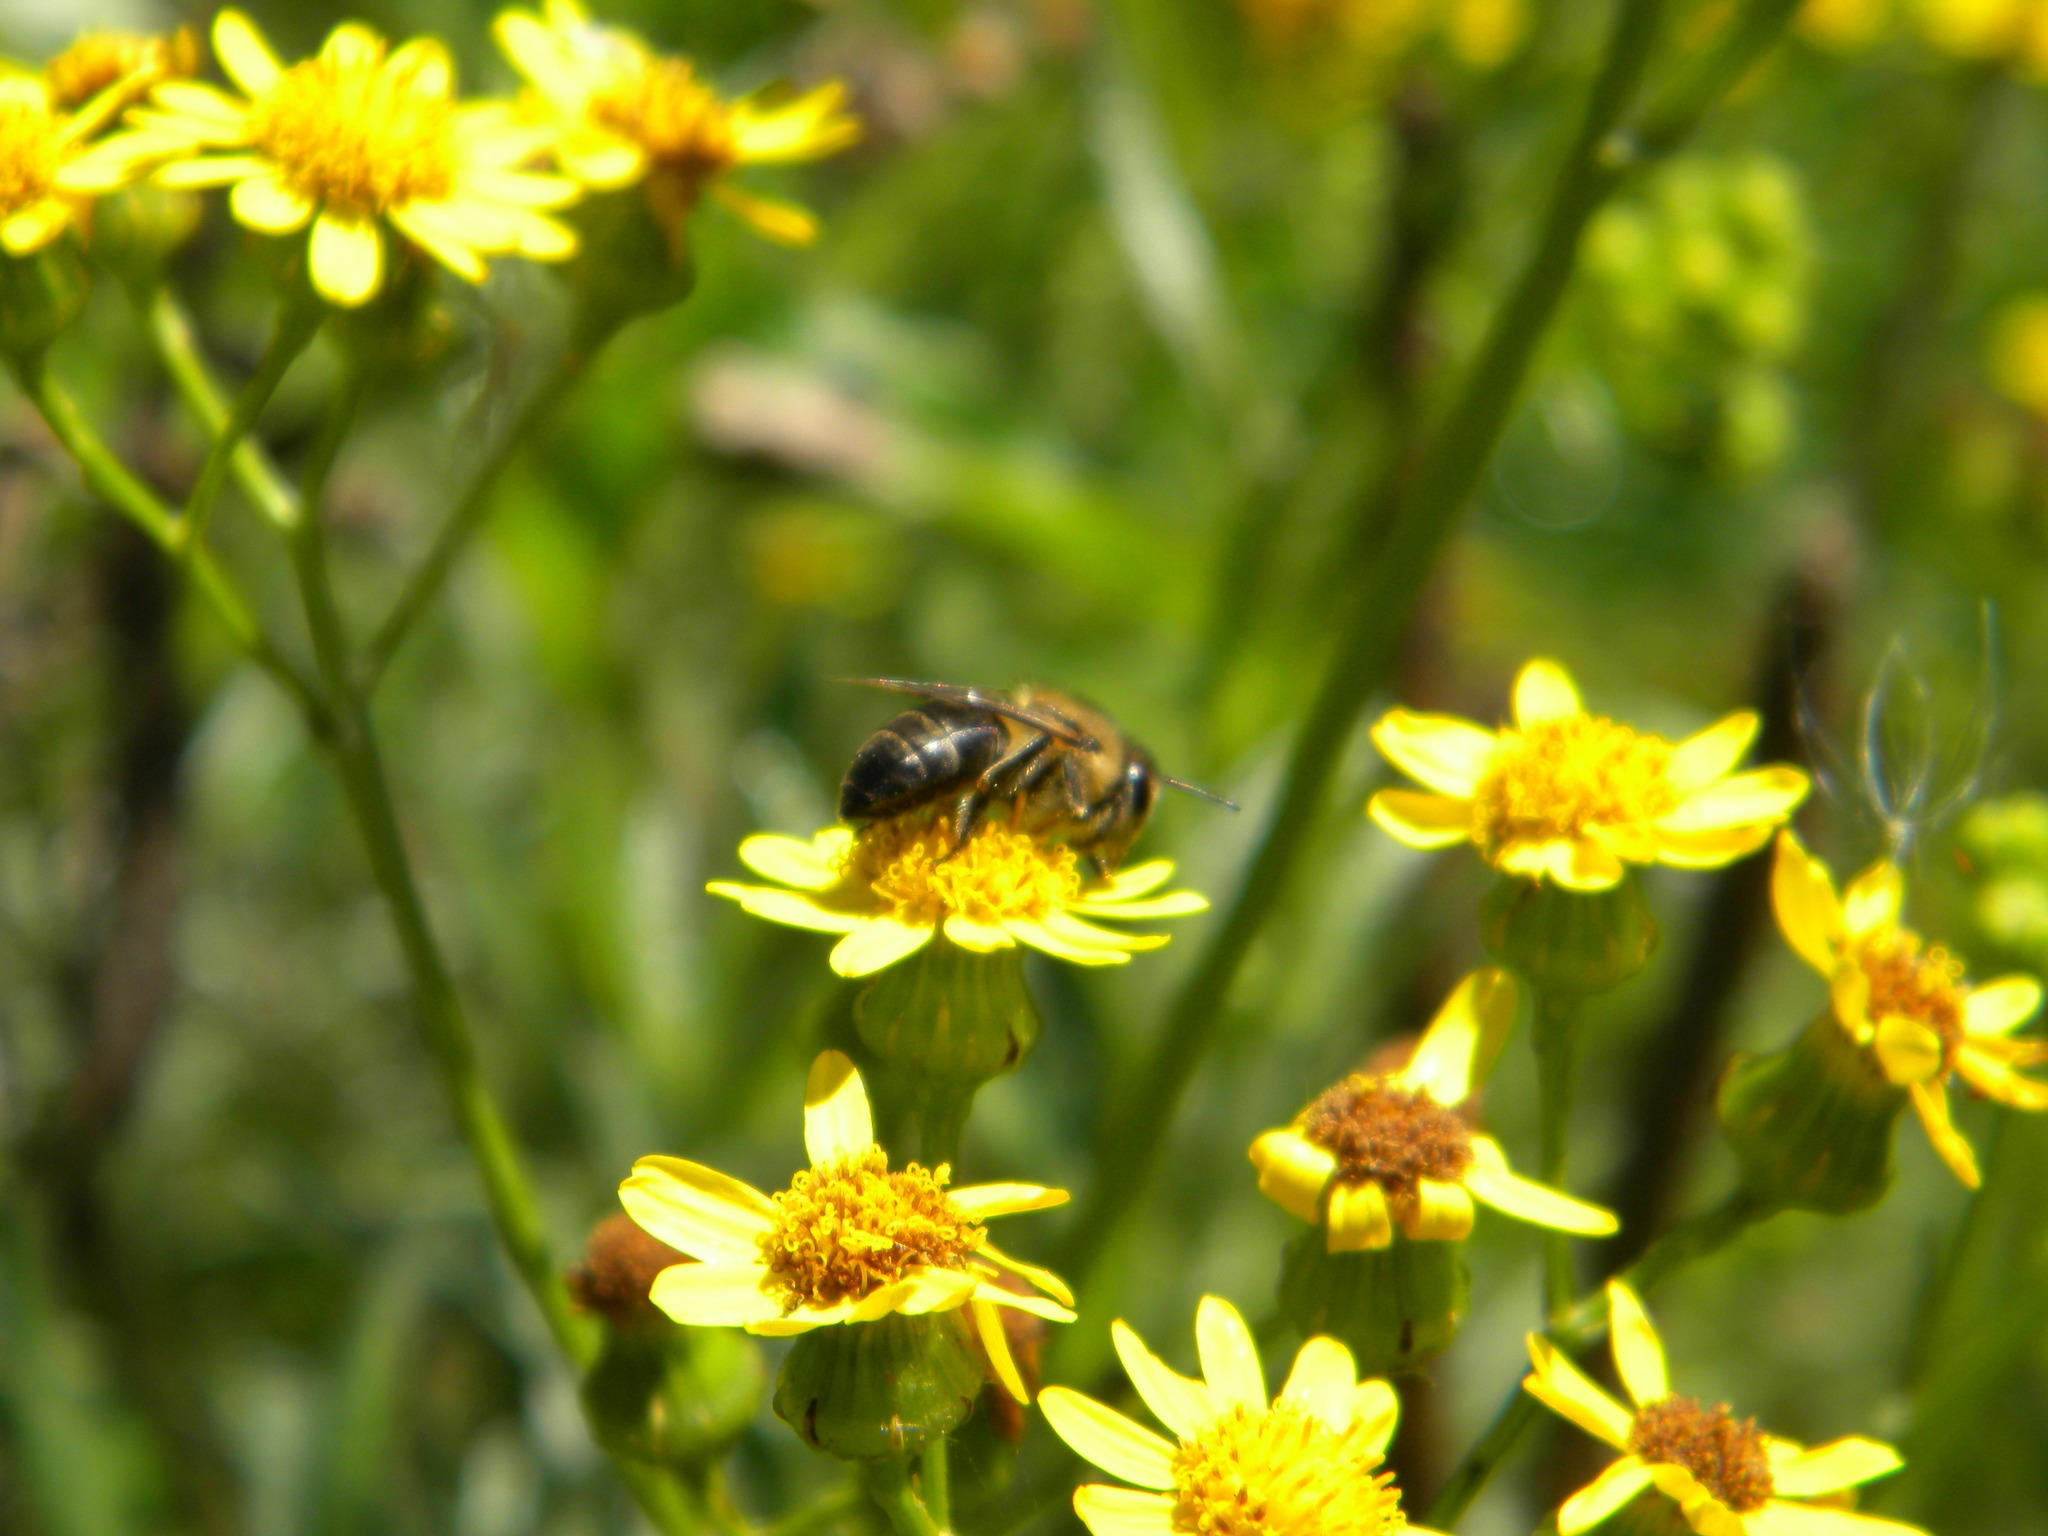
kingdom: Animalia
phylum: Arthropoda
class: Insecta
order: Hymenoptera
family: Apidae
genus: Apis
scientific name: Apis mellifera
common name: Honey bee
